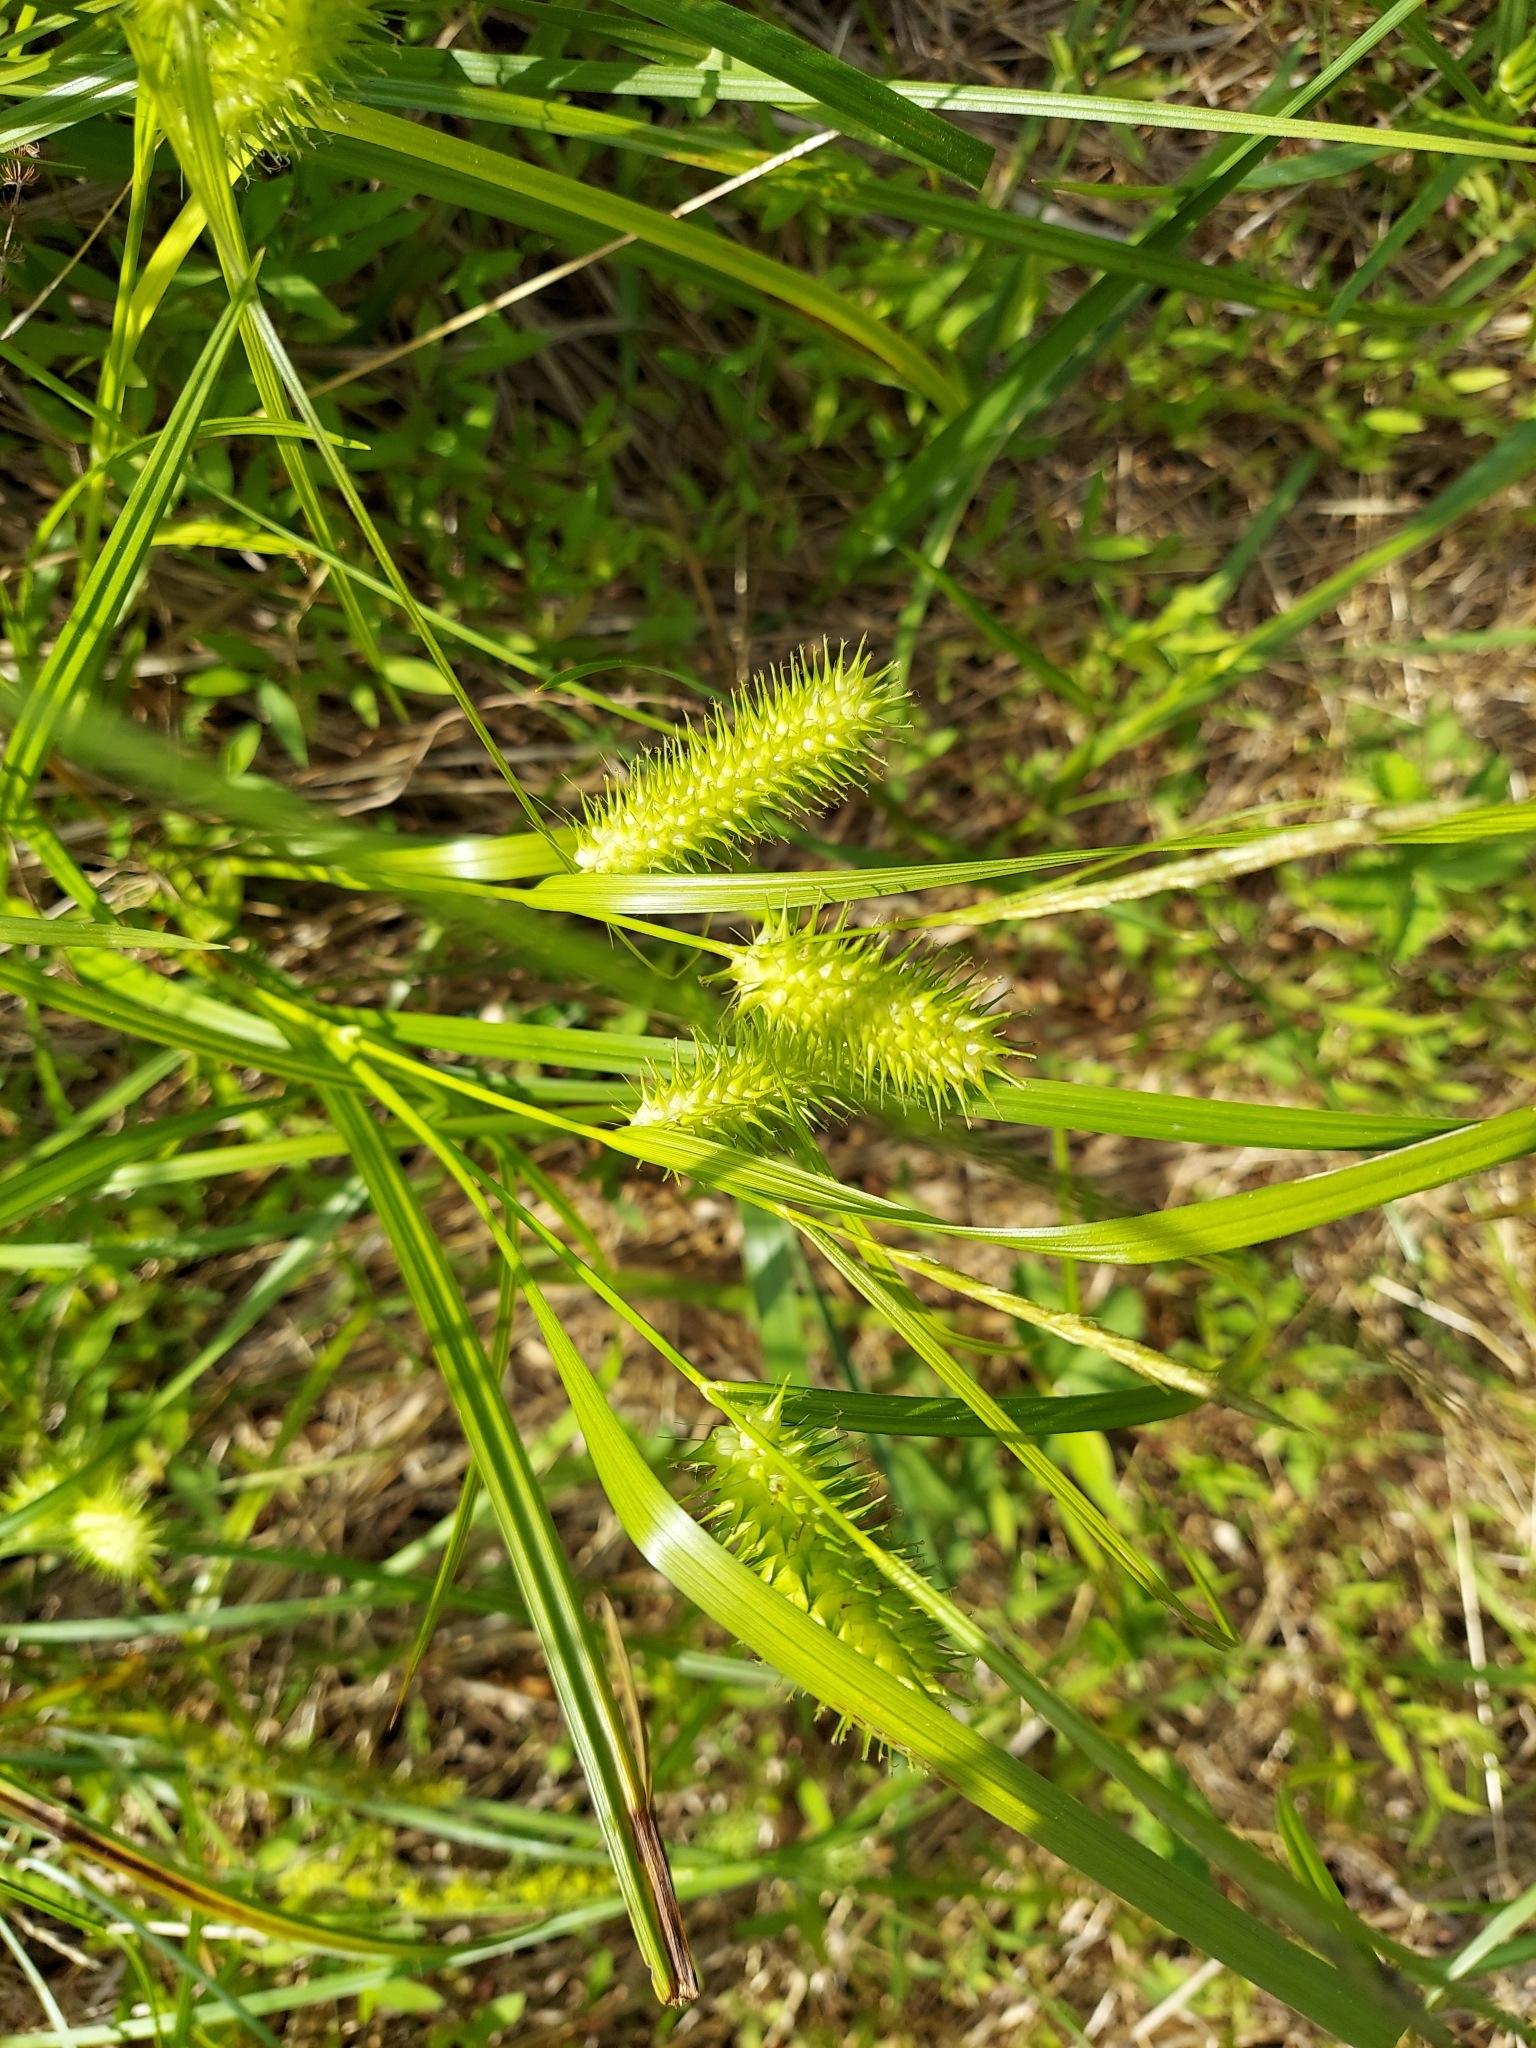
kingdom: Plantae
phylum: Tracheophyta
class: Liliopsida
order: Poales
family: Cyperaceae
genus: Carex
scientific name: Carex lurida
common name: Sallow sedge
